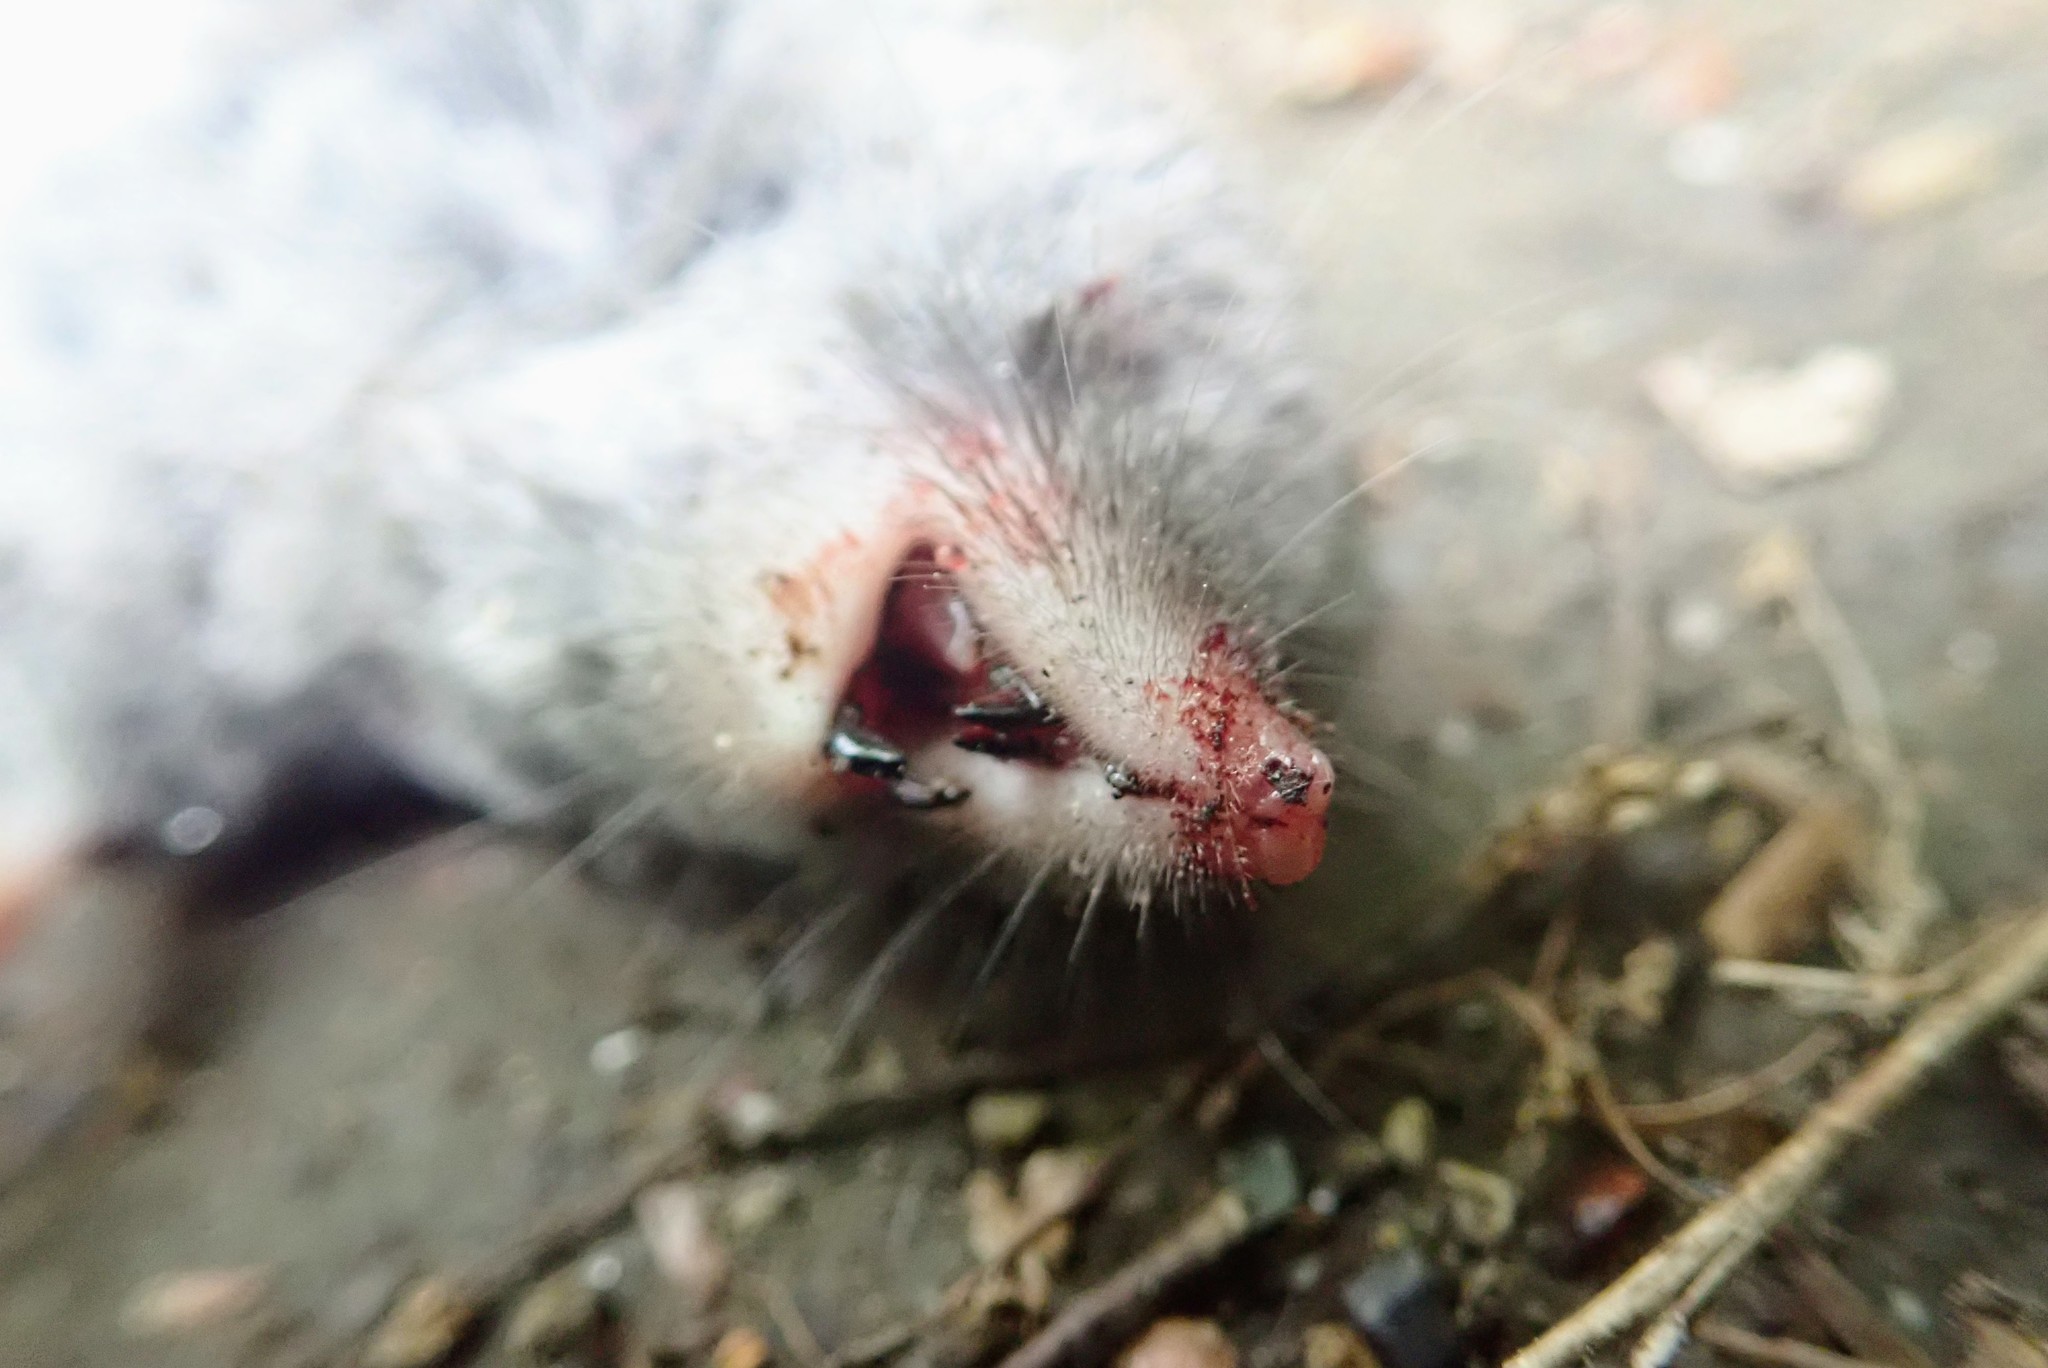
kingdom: Animalia
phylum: Chordata
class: Mammalia
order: Soricomorpha
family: Soricidae
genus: Blarina
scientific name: Blarina brevicauda
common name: Northern short-tailed shrew
